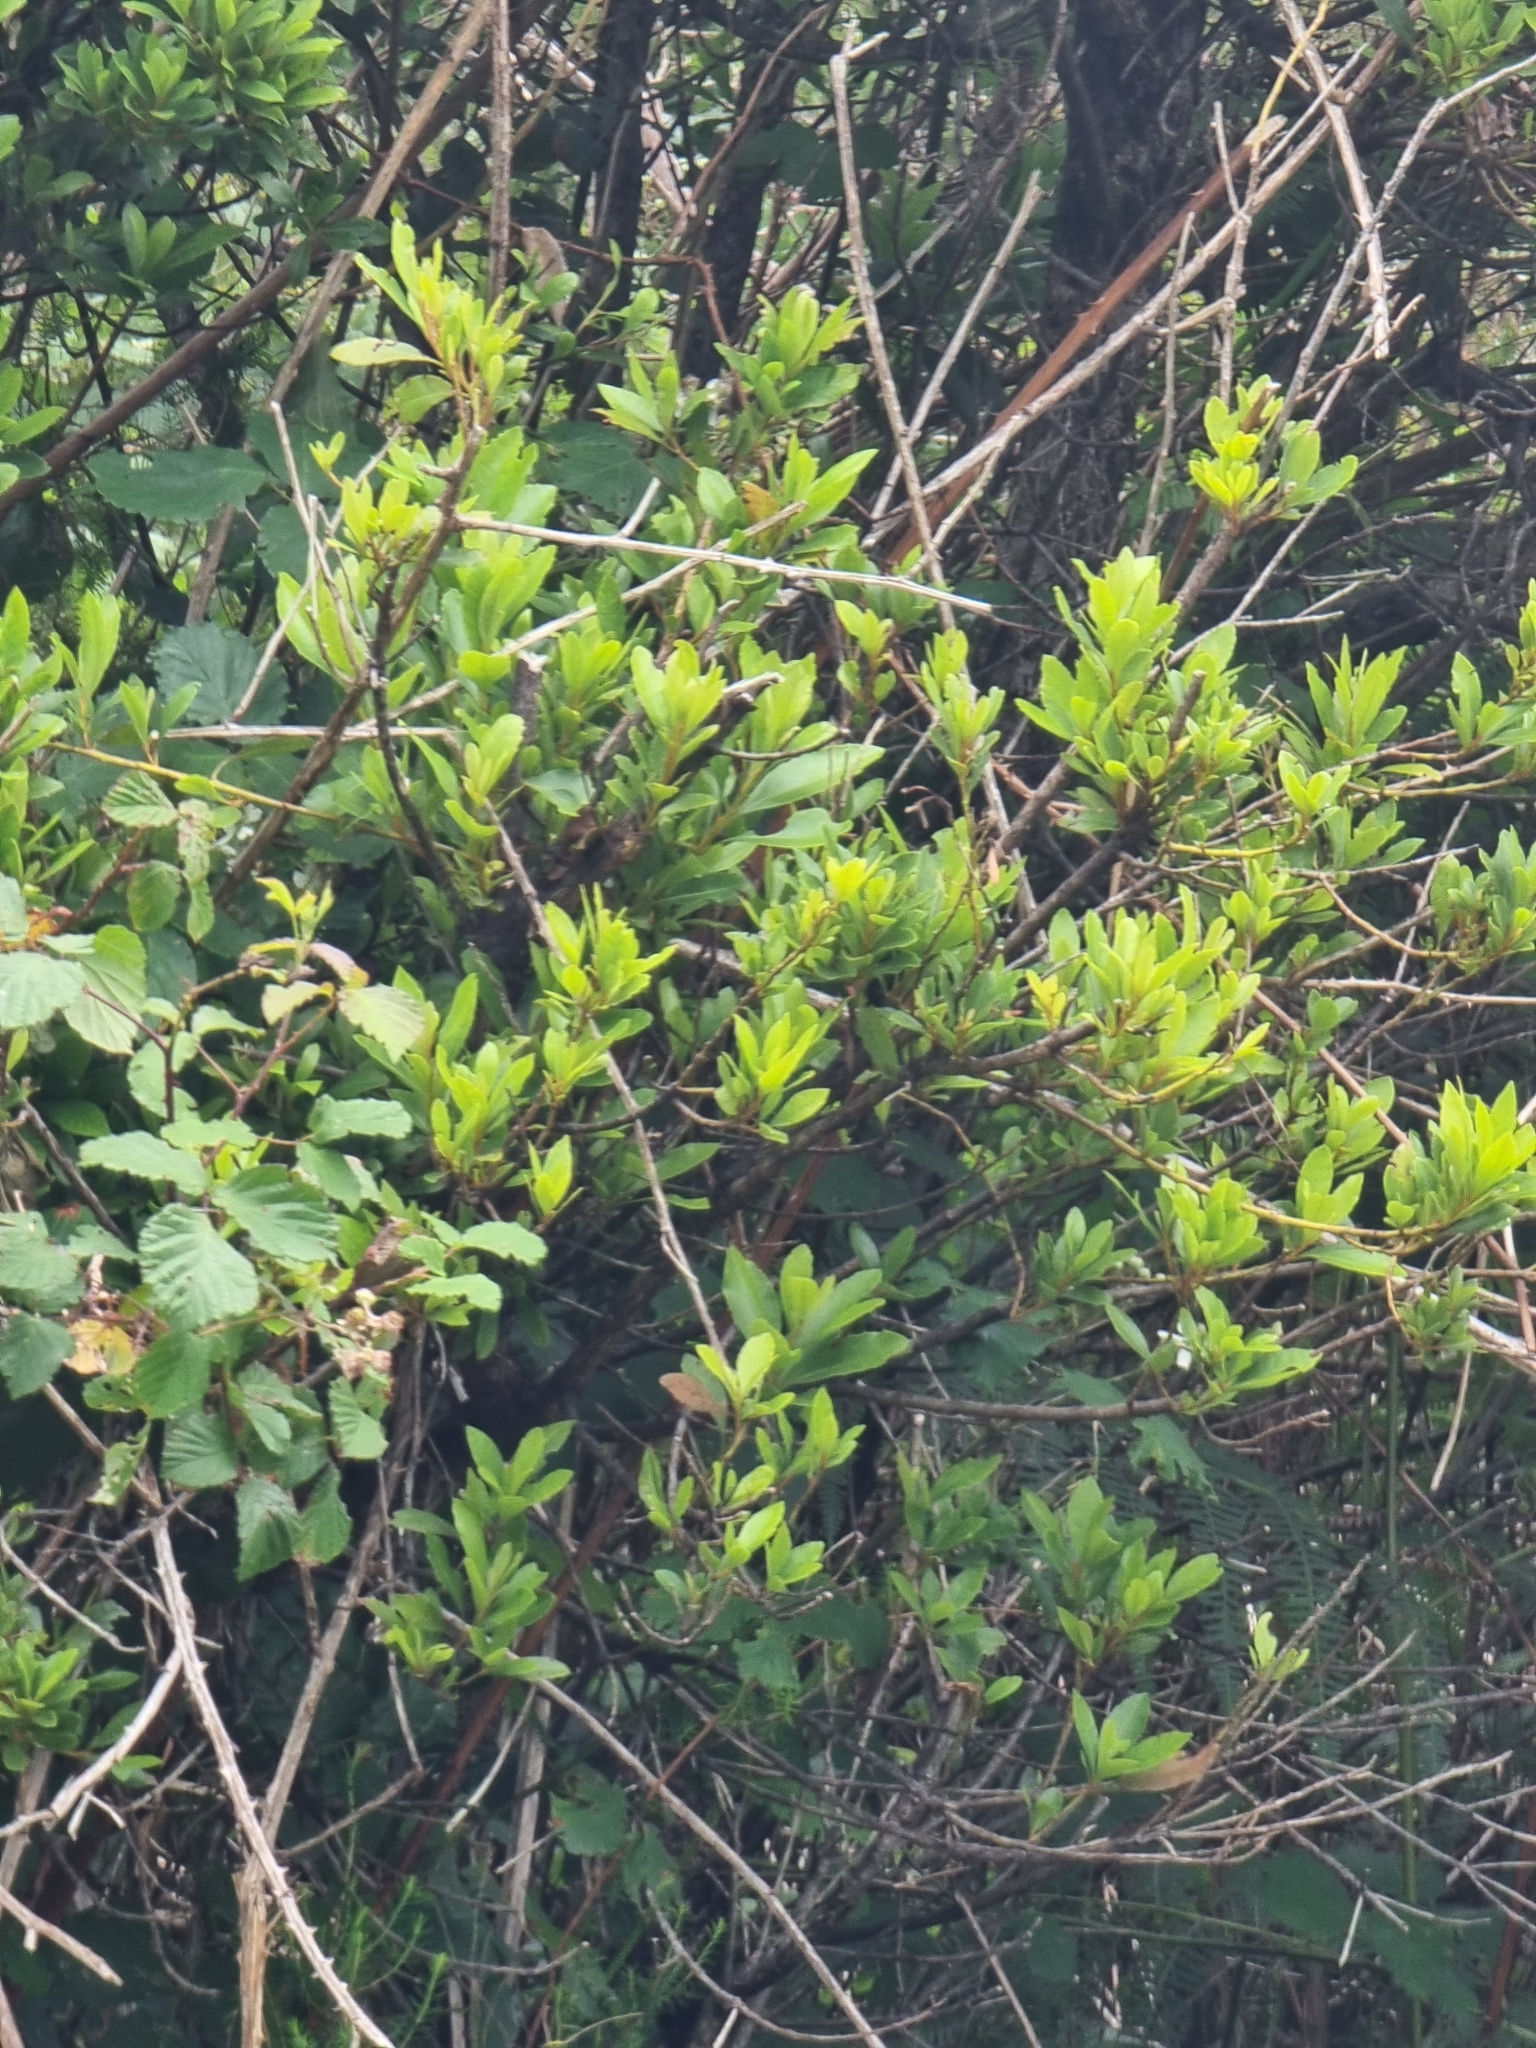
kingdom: Plantae
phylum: Tracheophyta
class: Magnoliopsida
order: Fagales
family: Myricaceae
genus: Morella
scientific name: Morella faya
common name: Firetree
